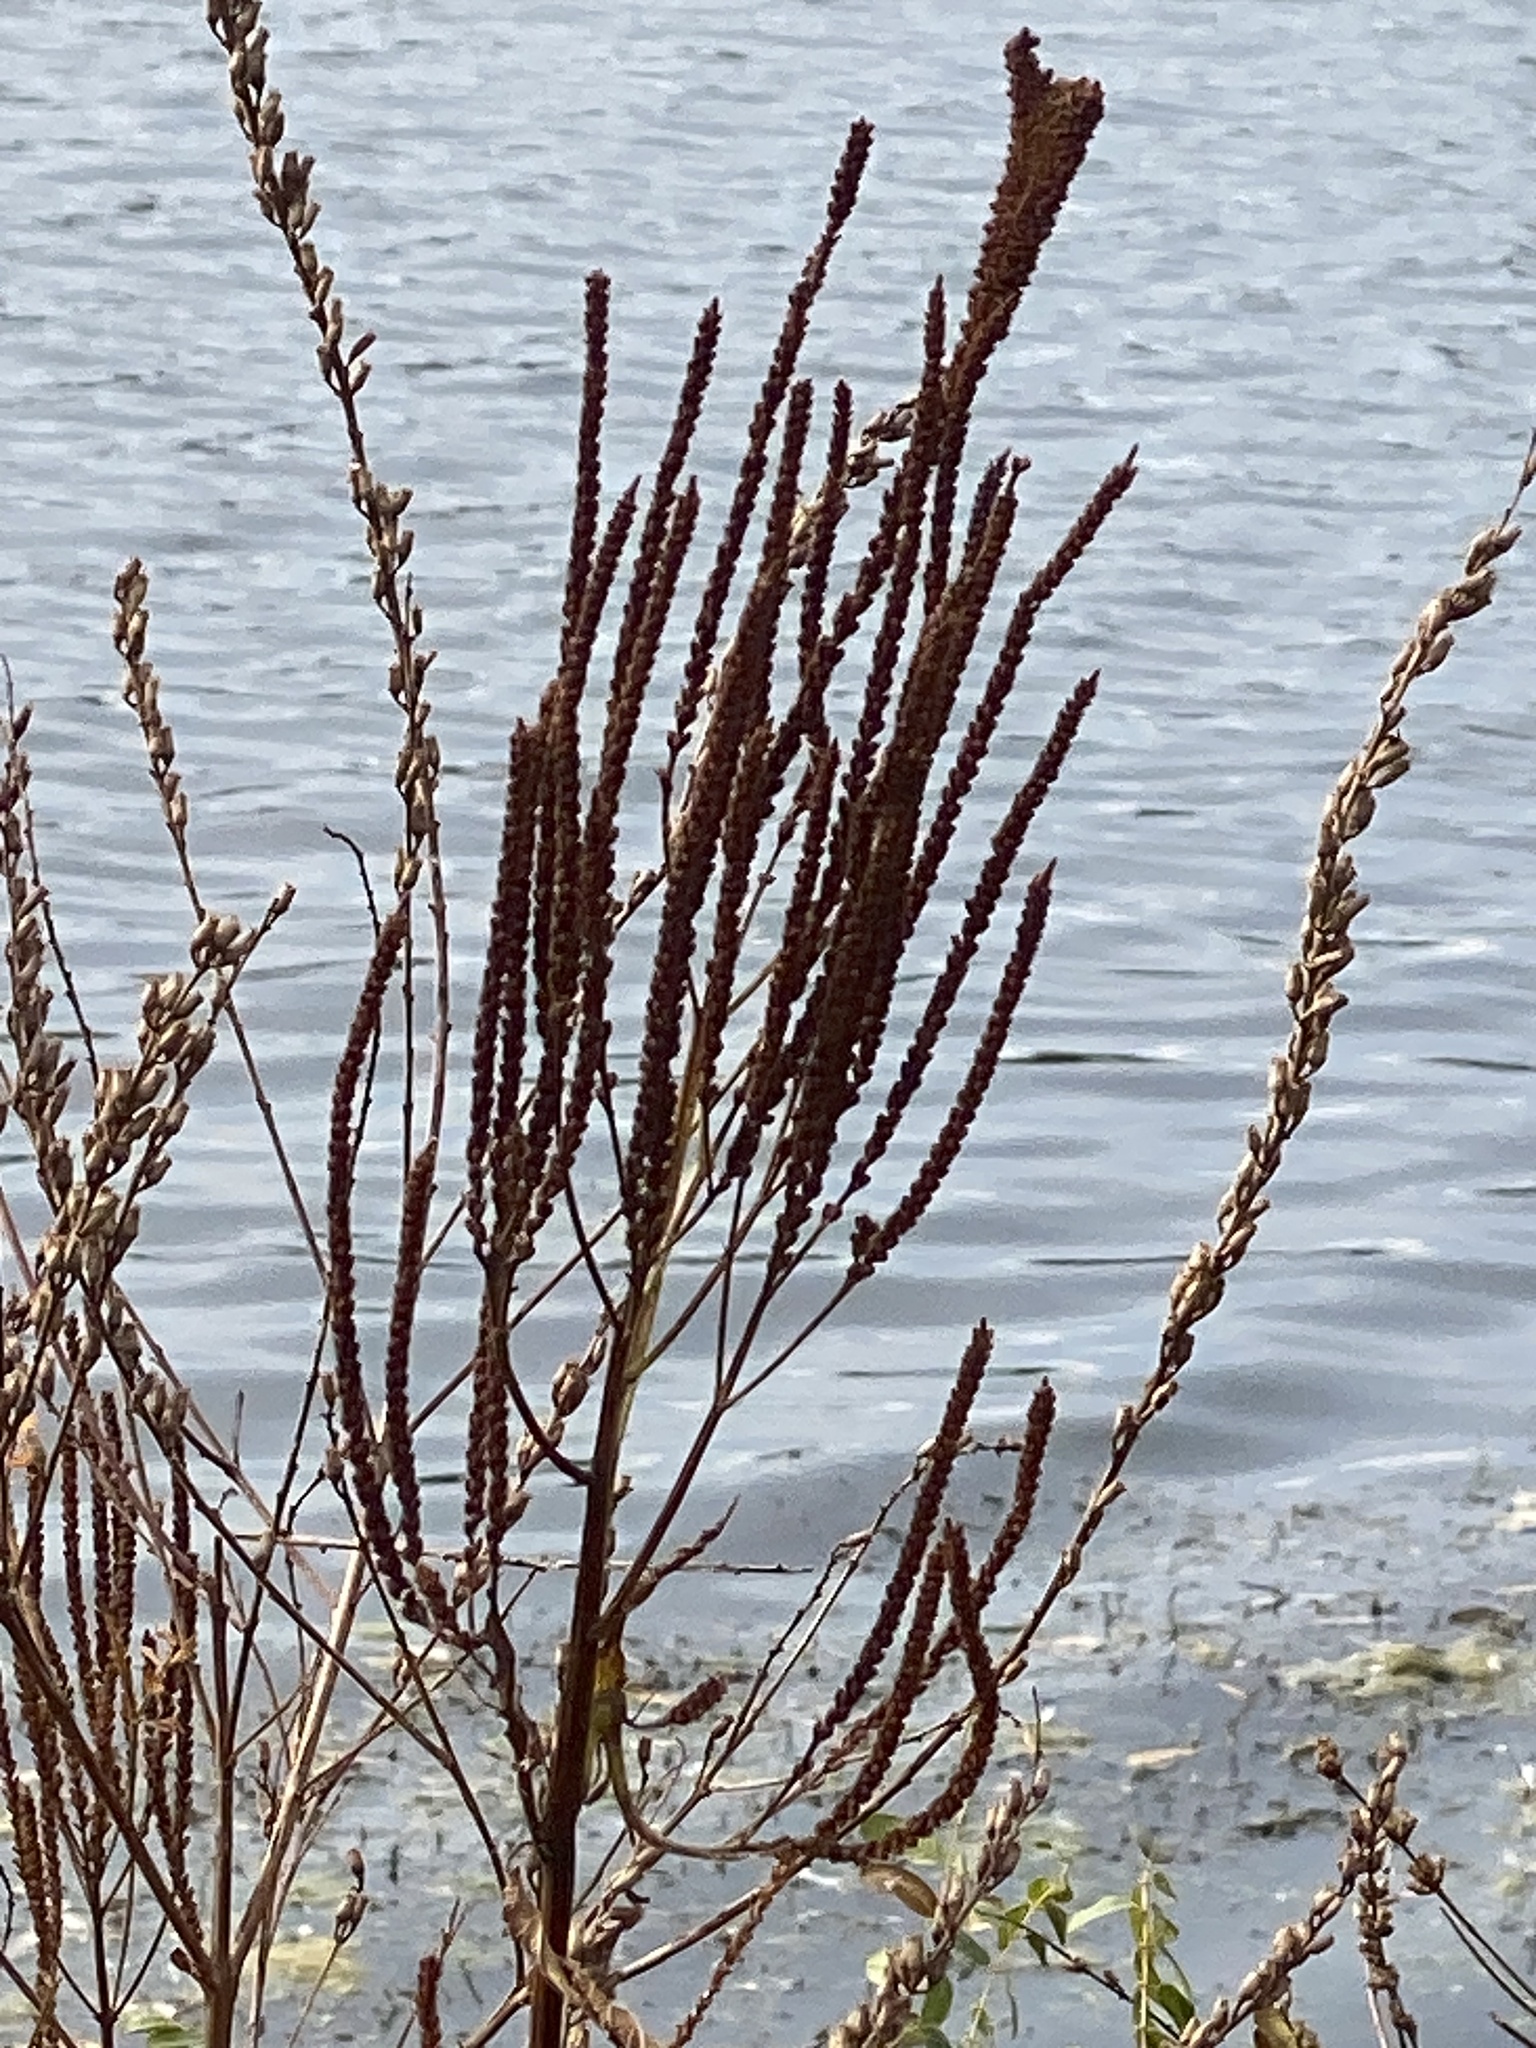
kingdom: Plantae
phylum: Tracheophyta
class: Magnoliopsida
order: Lamiales
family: Verbenaceae
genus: Verbena
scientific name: Verbena hastata
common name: American blue vervain
